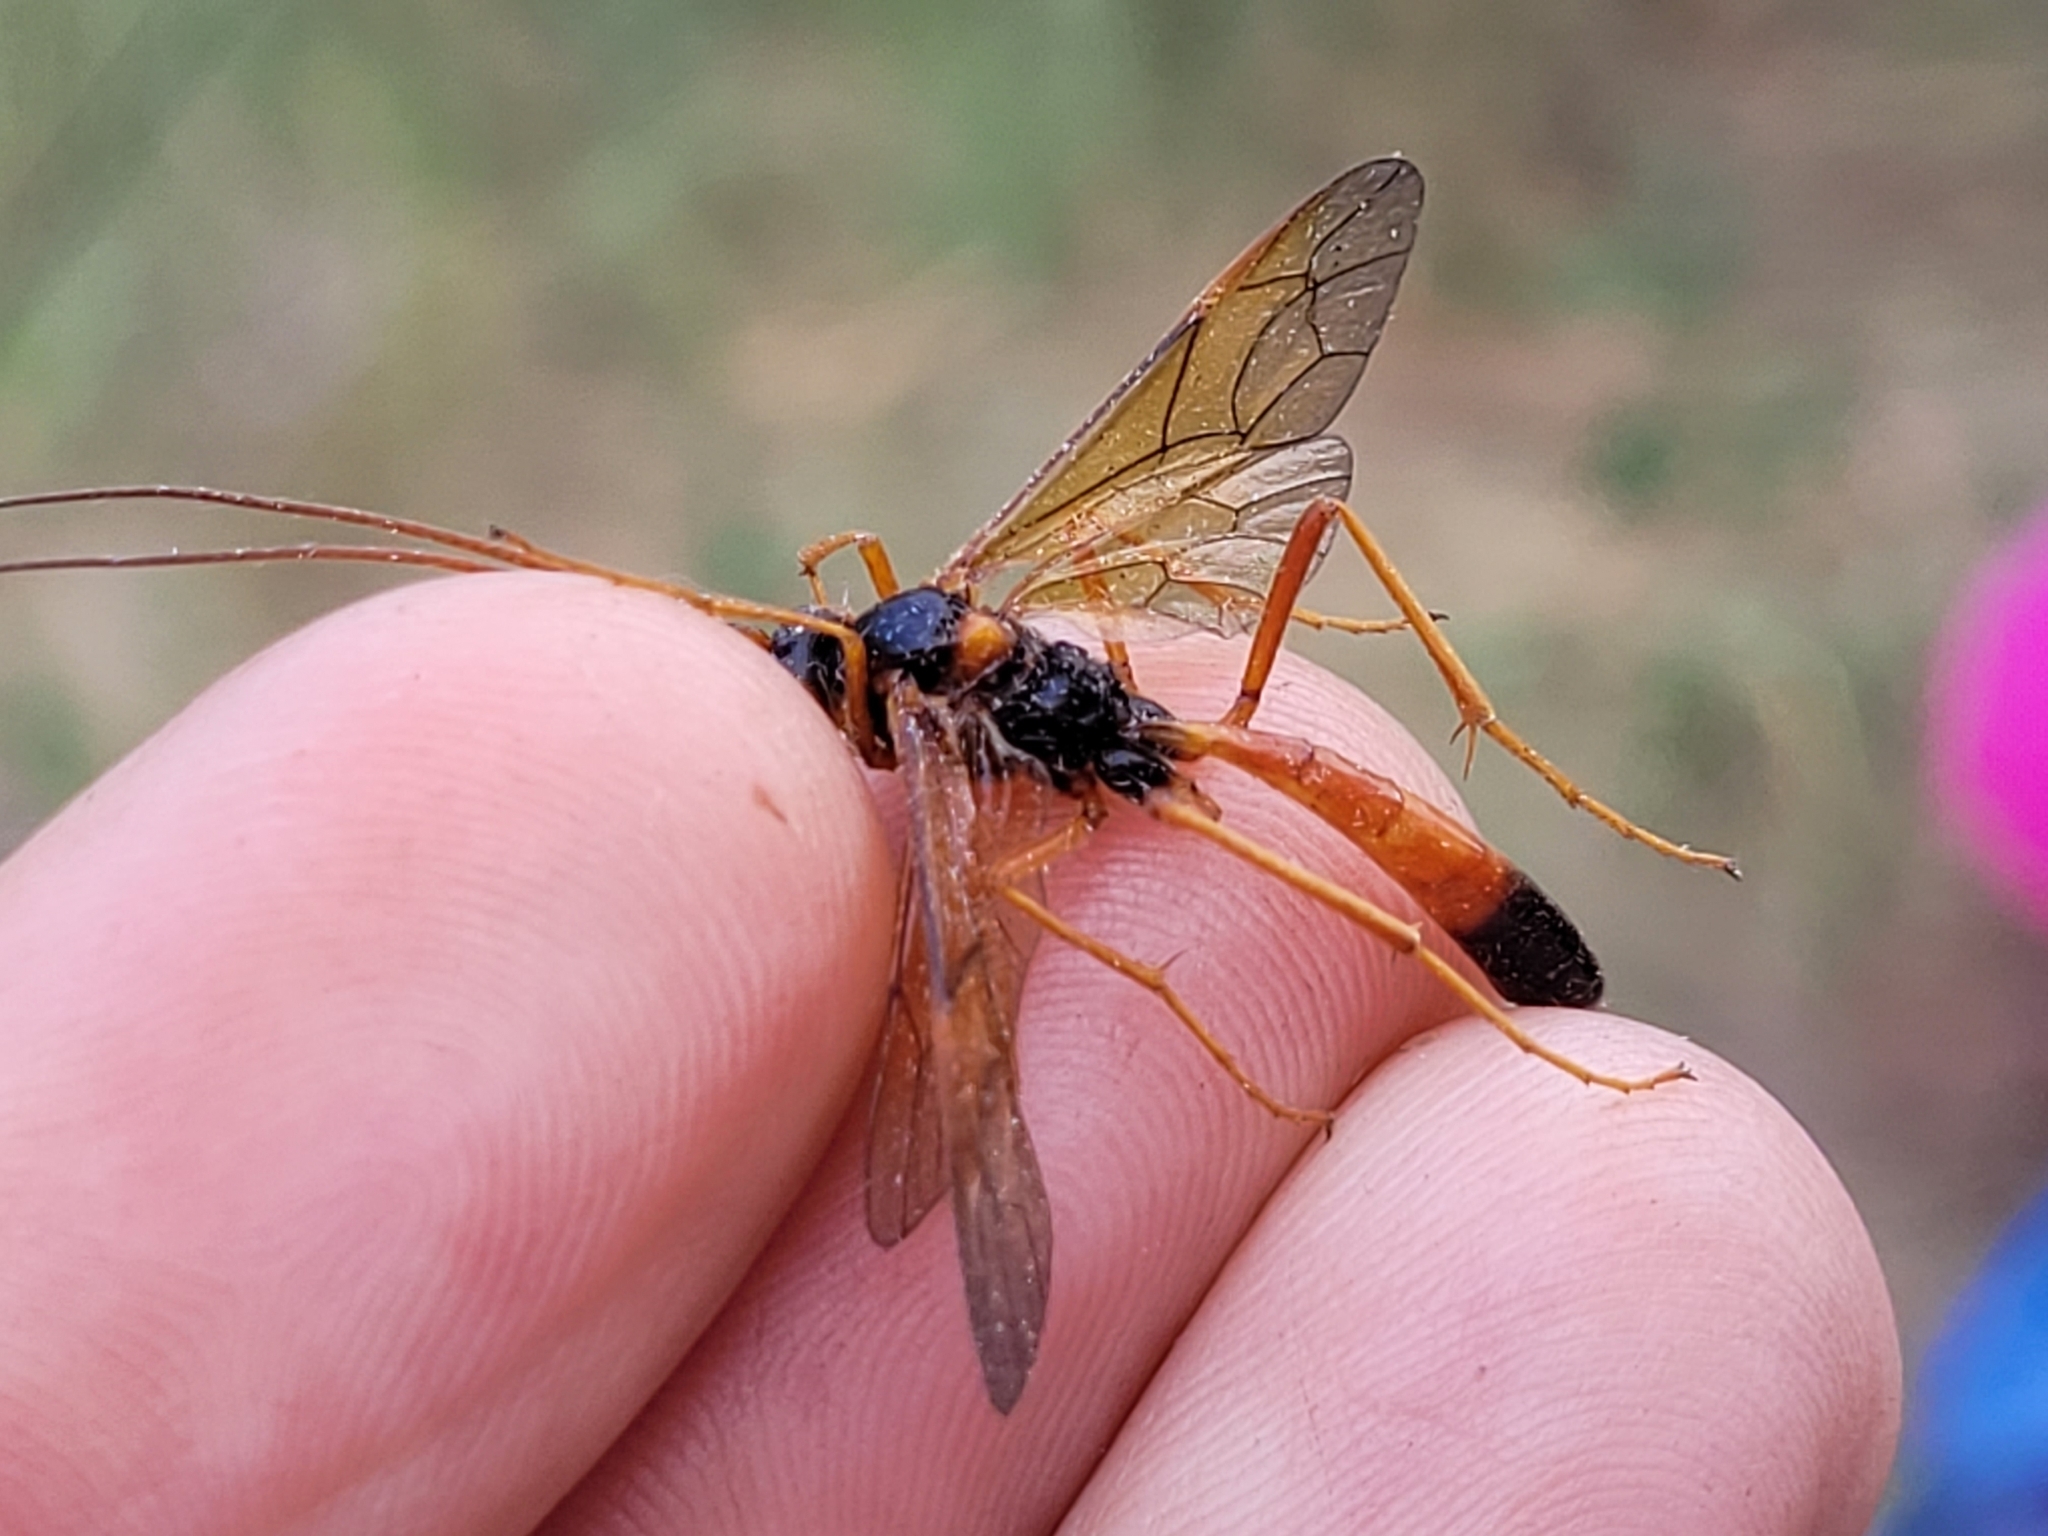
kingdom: Animalia
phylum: Arthropoda
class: Insecta
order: Hymenoptera
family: Ichneumonidae
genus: Opheltes
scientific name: Opheltes glaucopterus
